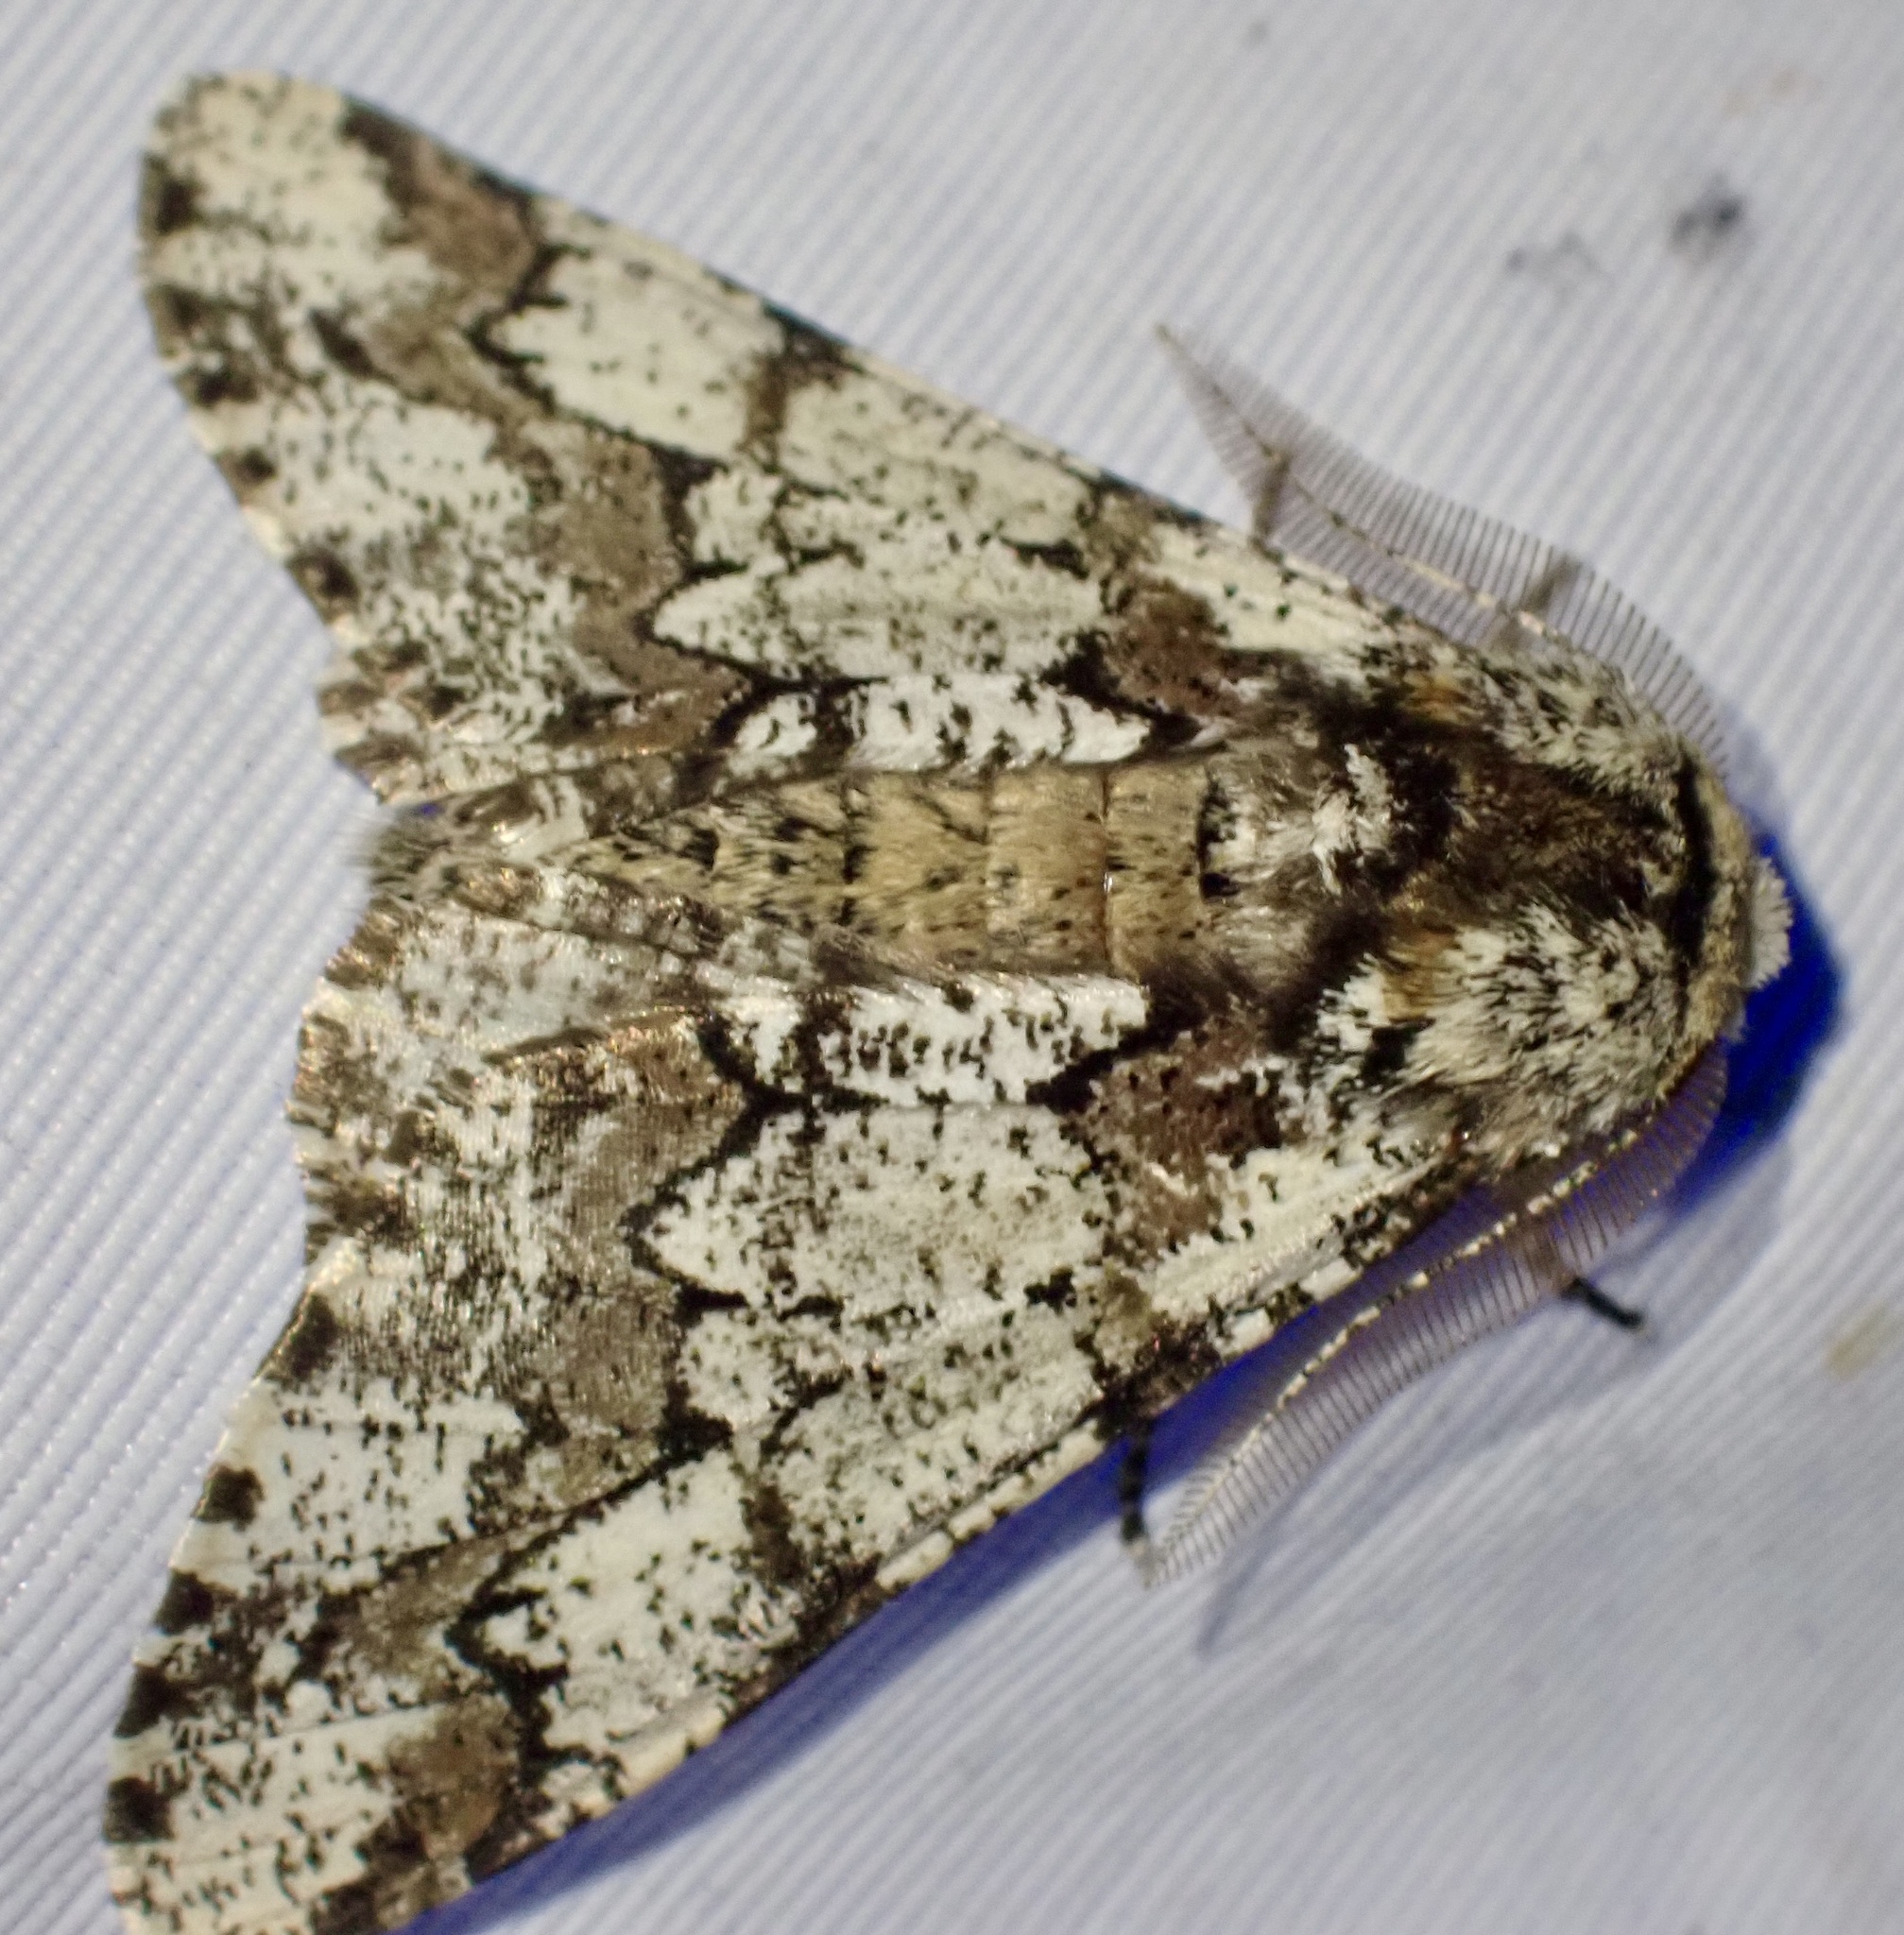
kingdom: Animalia
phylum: Arthropoda
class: Insecta
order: Lepidoptera
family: Geometridae
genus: Biston
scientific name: Biston strataria
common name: Oak beauty
